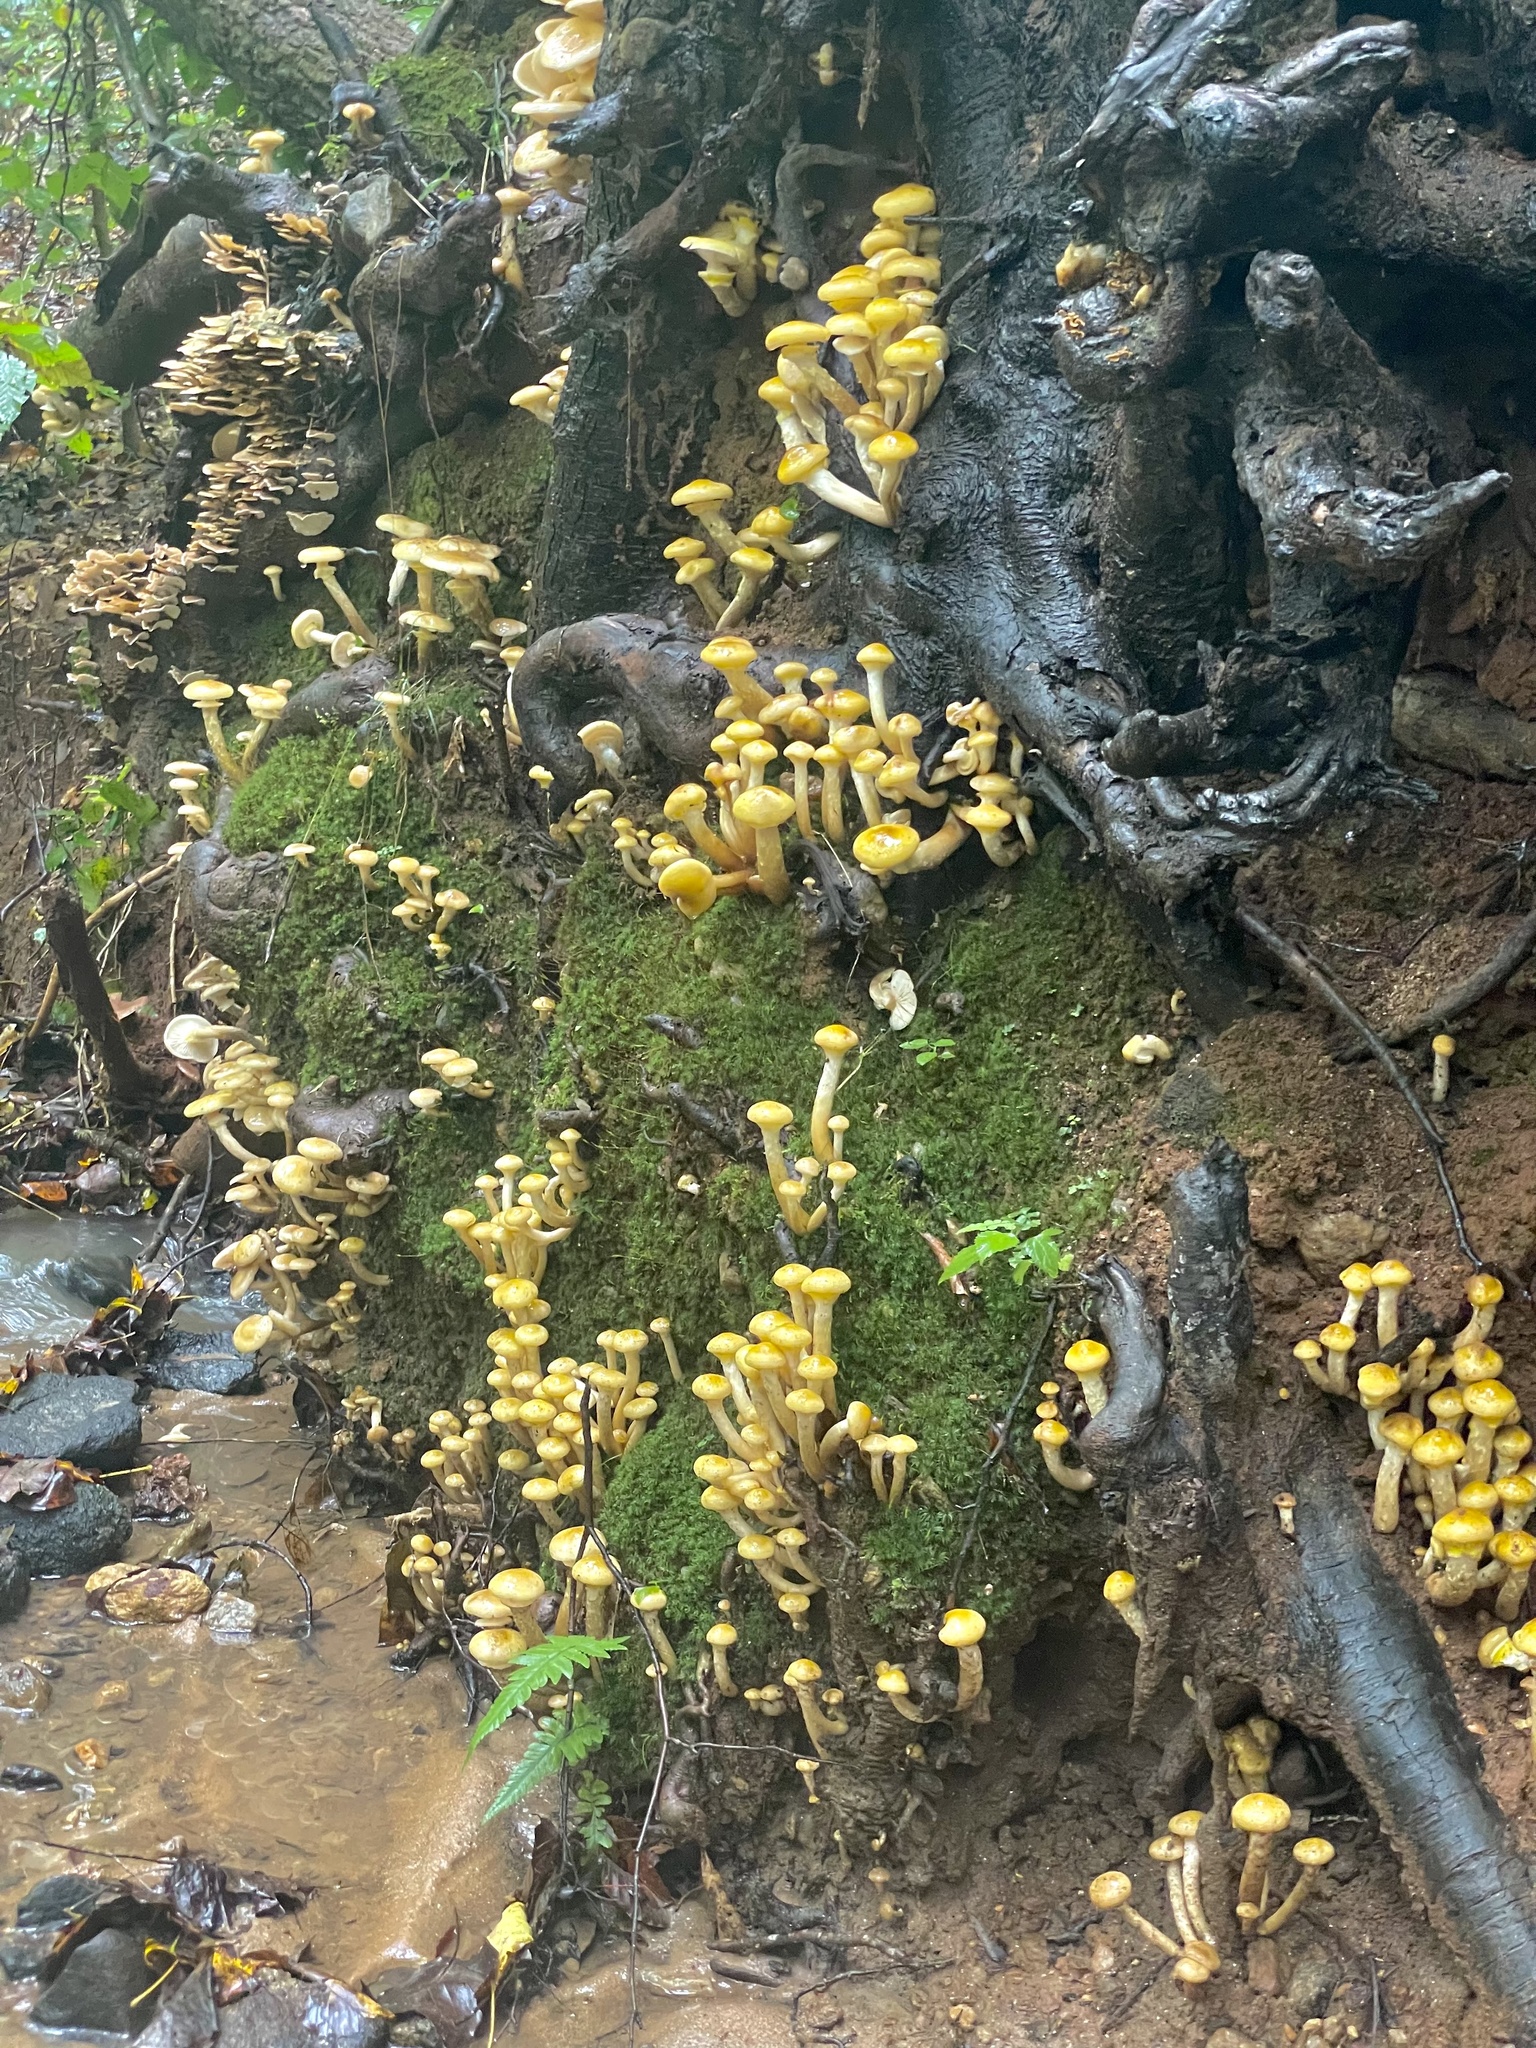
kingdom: Fungi
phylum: Basidiomycota
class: Agaricomycetes
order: Agaricales
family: Physalacriaceae
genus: Armillaria
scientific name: Armillaria mellea
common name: Honey fungus
